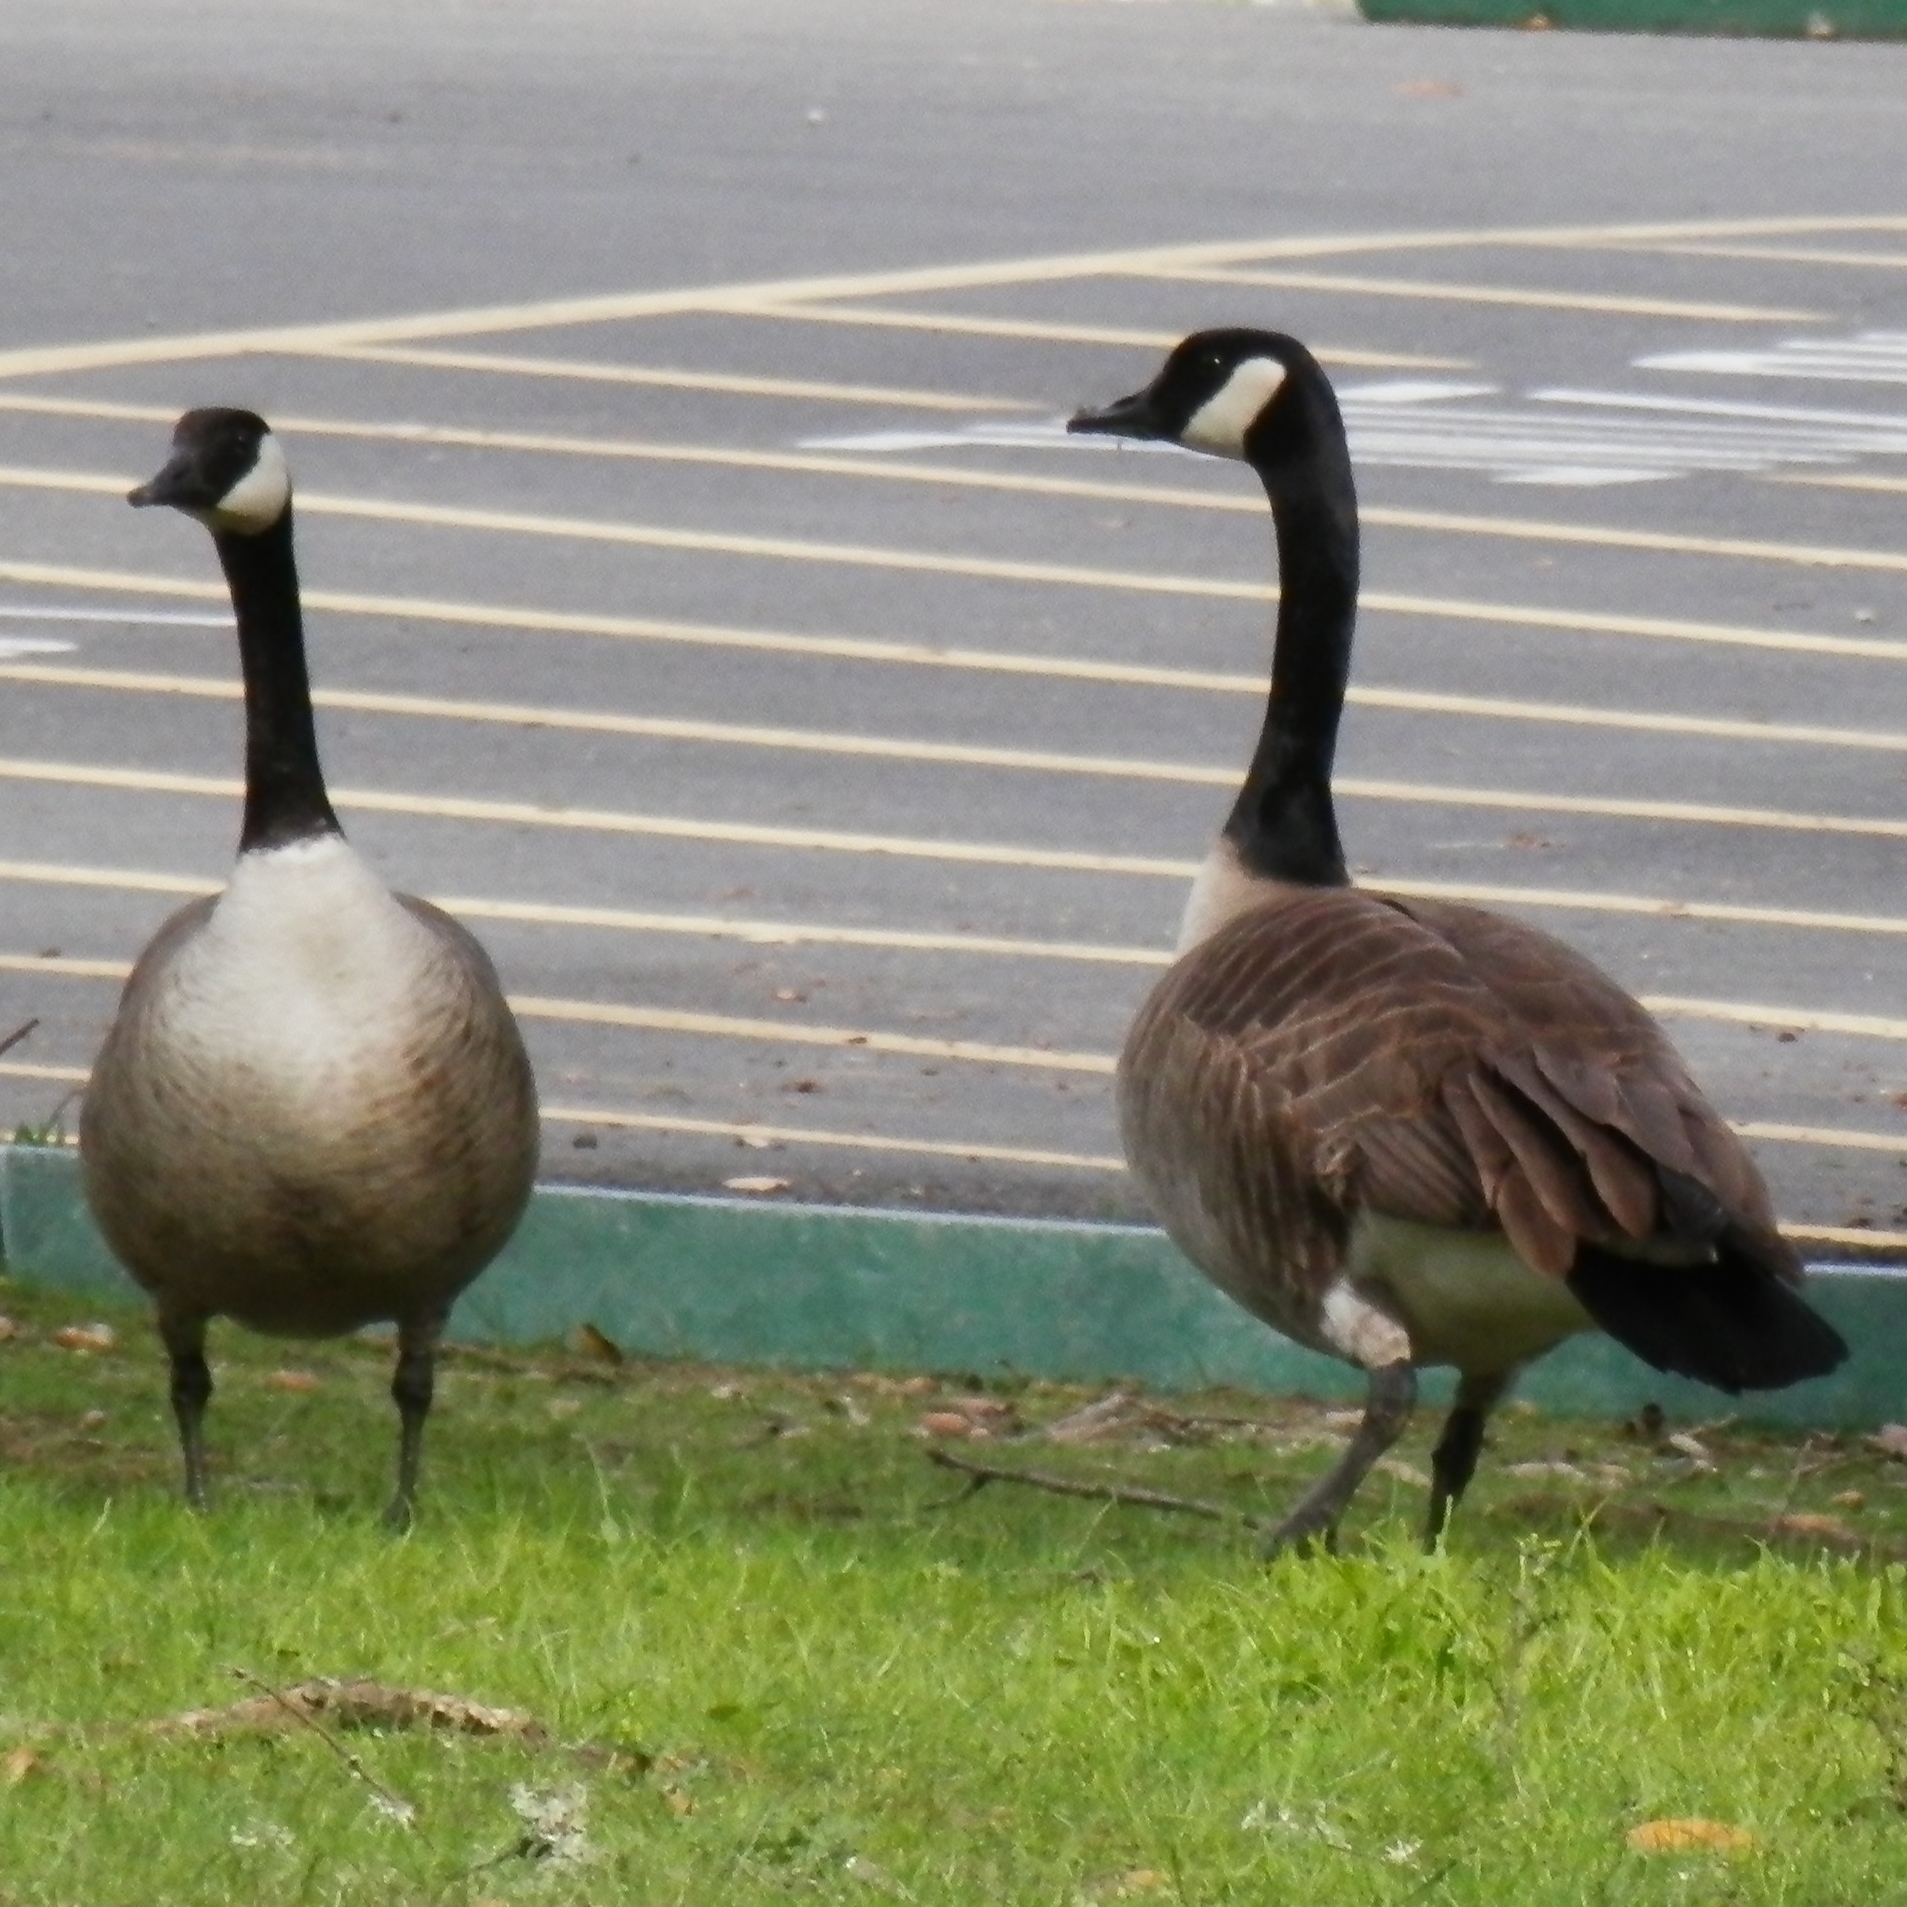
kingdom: Animalia
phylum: Chordata
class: Aves
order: Anseriformes
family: Anatidae
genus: Branta
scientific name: Branta canadensis
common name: Canada goose
